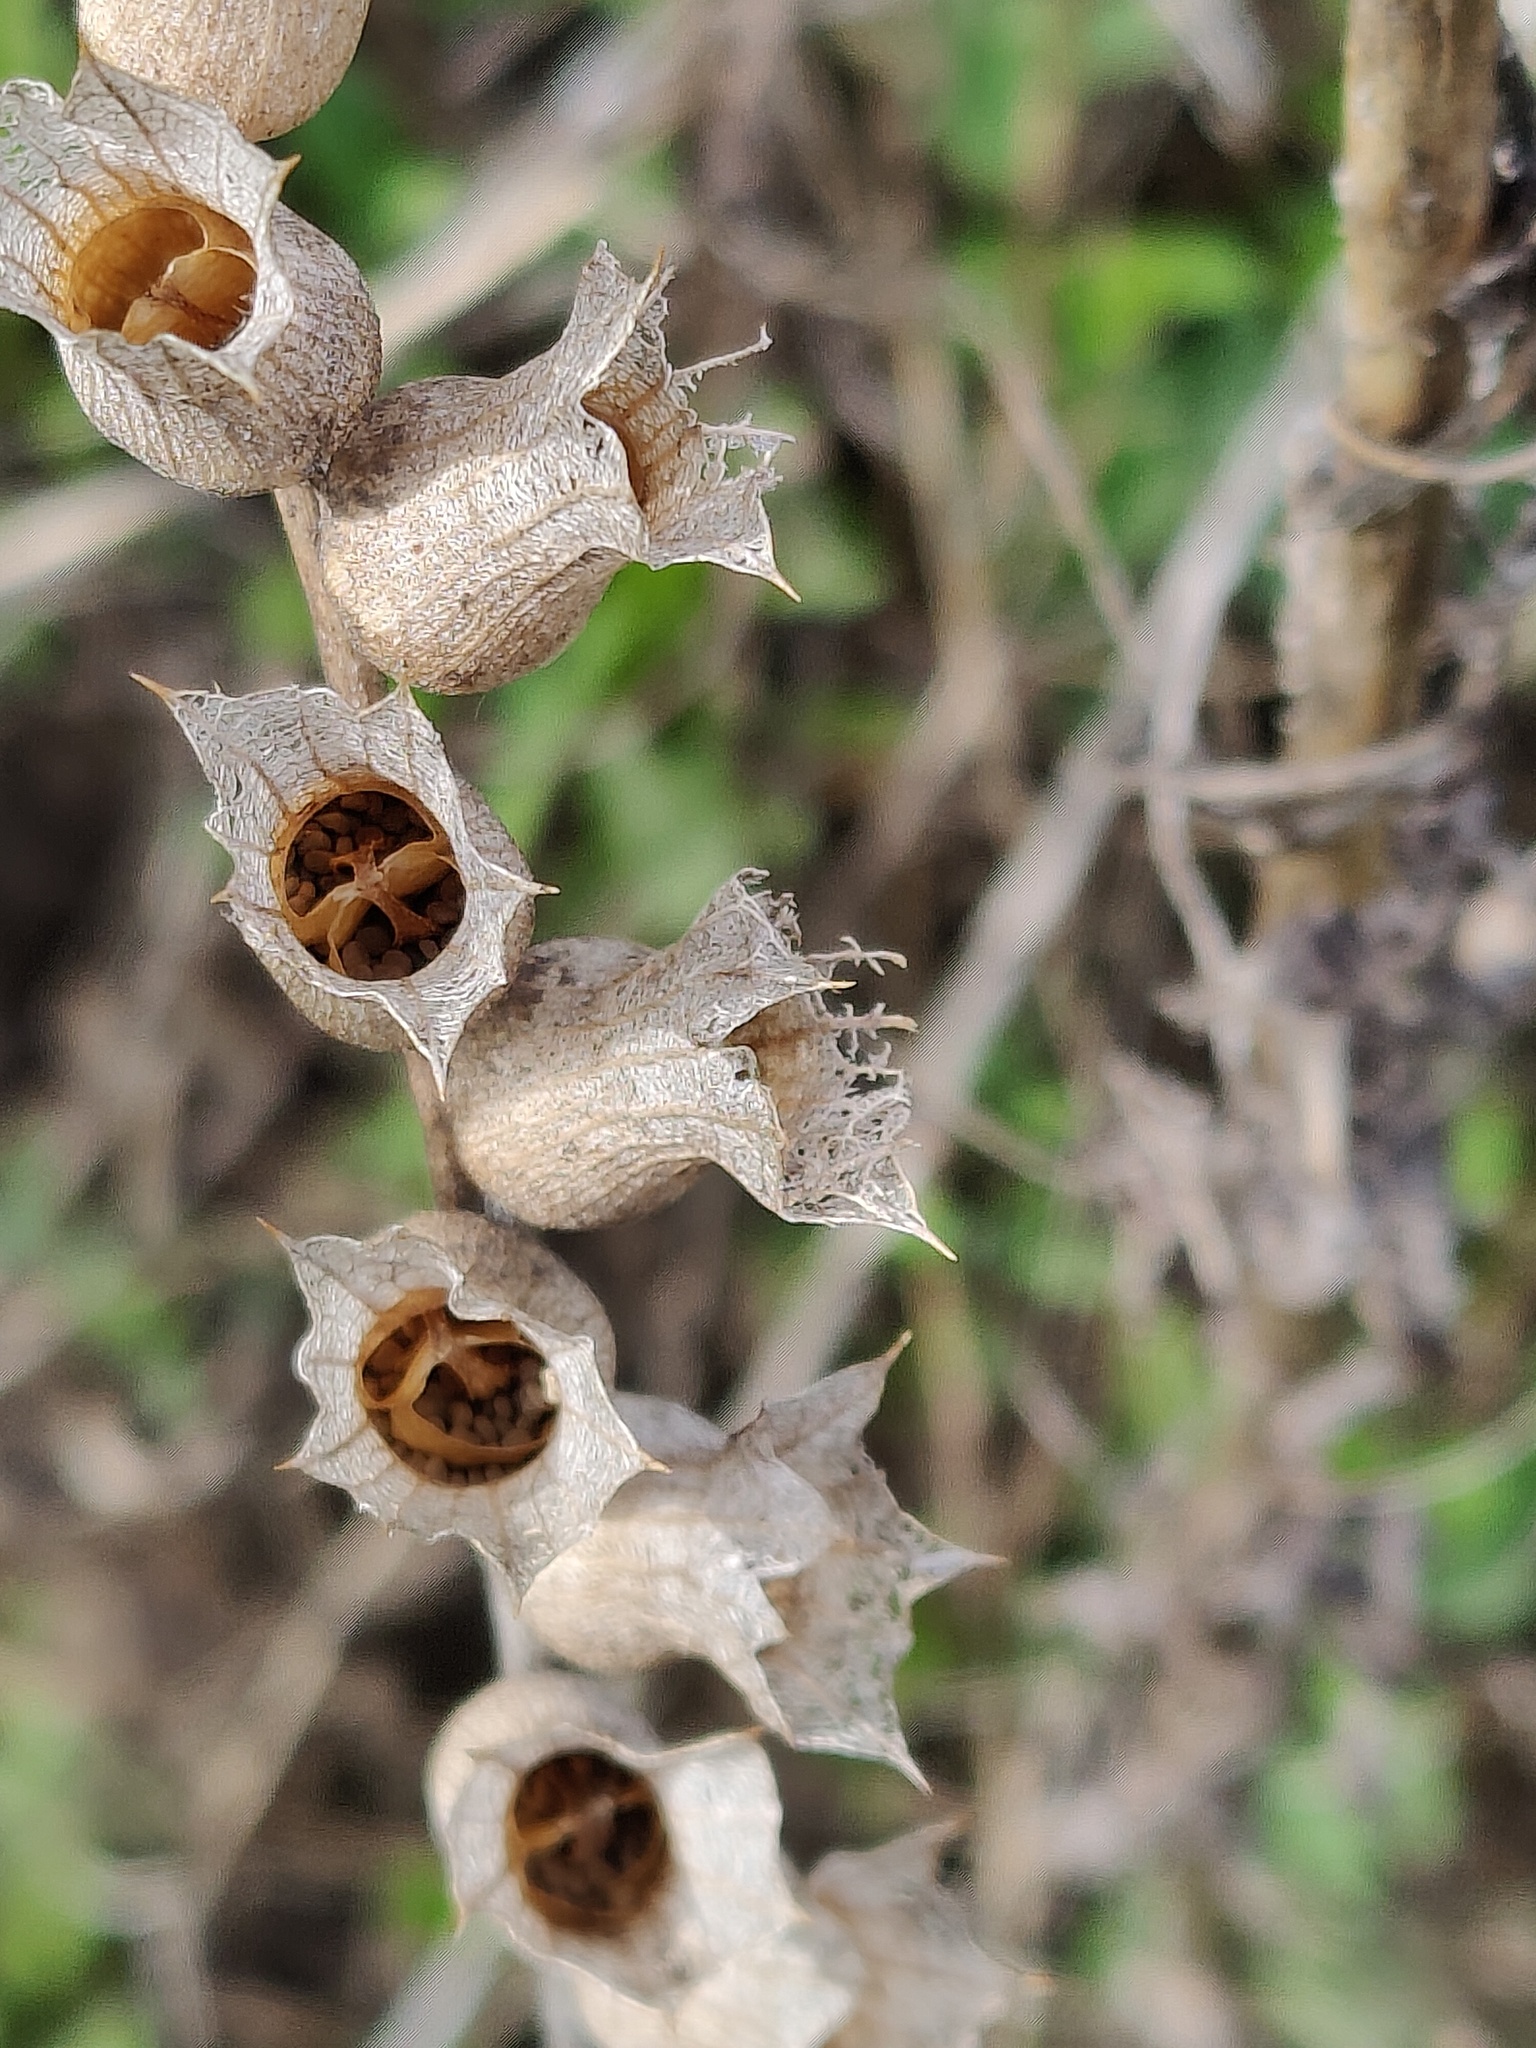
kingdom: Plantae
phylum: Tracheophyta
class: Magnoliopsida
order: Solanales
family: Solanaceae
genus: Hyoscyamus
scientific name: Hyoscyamus niger
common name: Henbane
